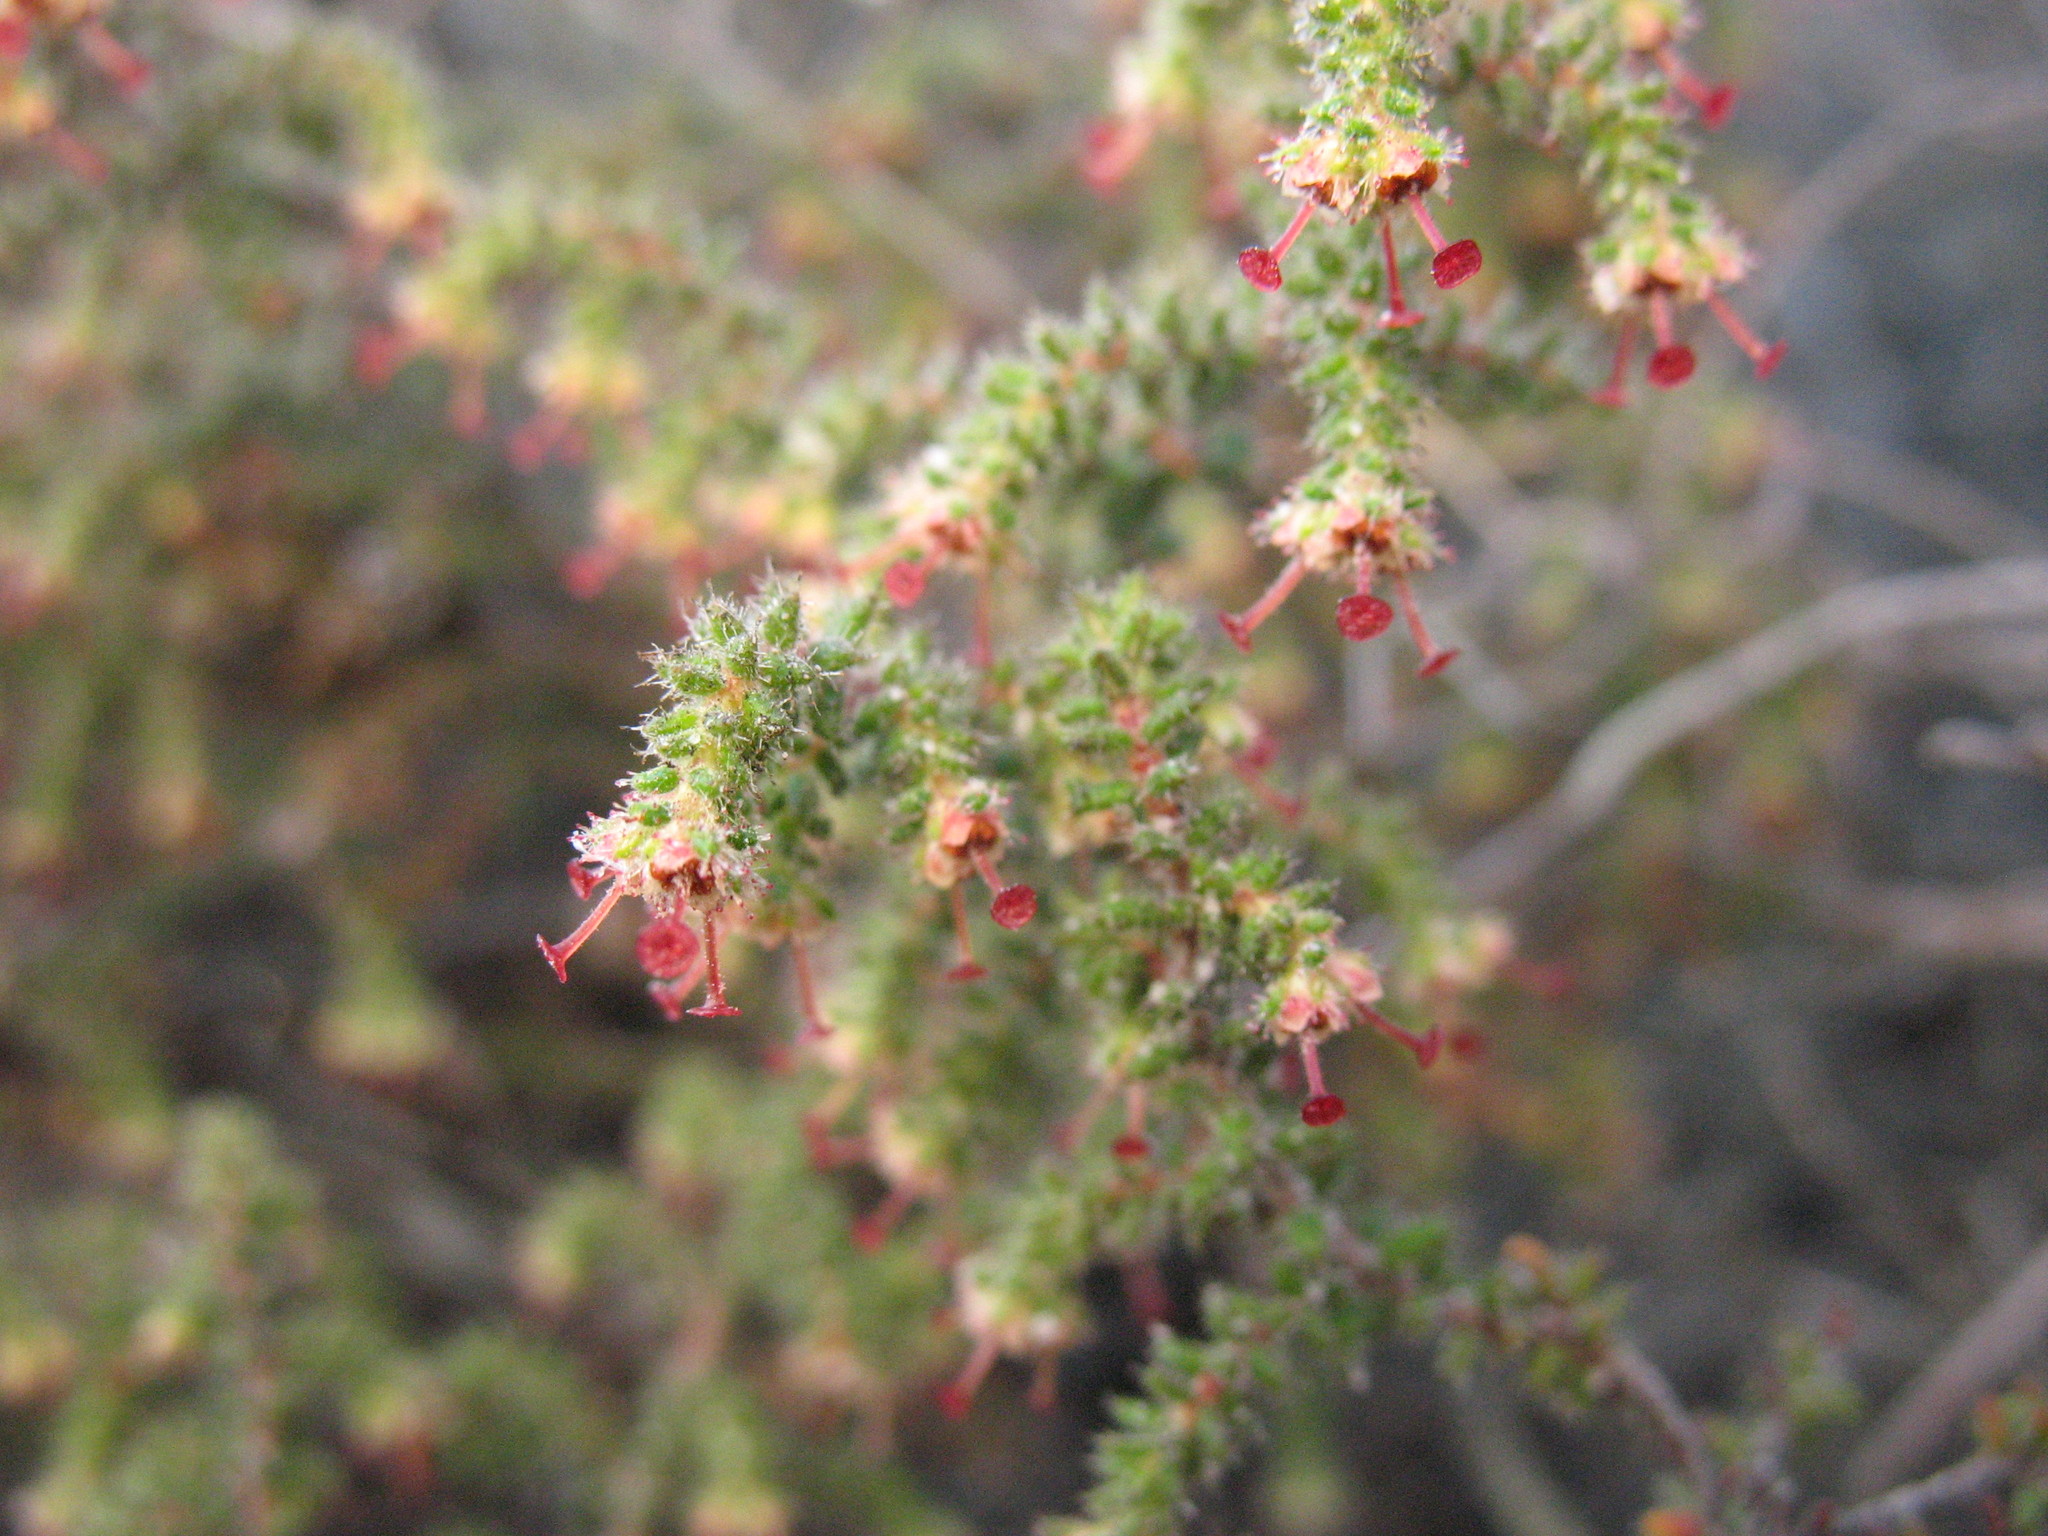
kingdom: Plantae
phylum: Tracheophyta
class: Magnoliopsida
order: Ericales
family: Ericaceae
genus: Erica
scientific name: Erica exleeana
